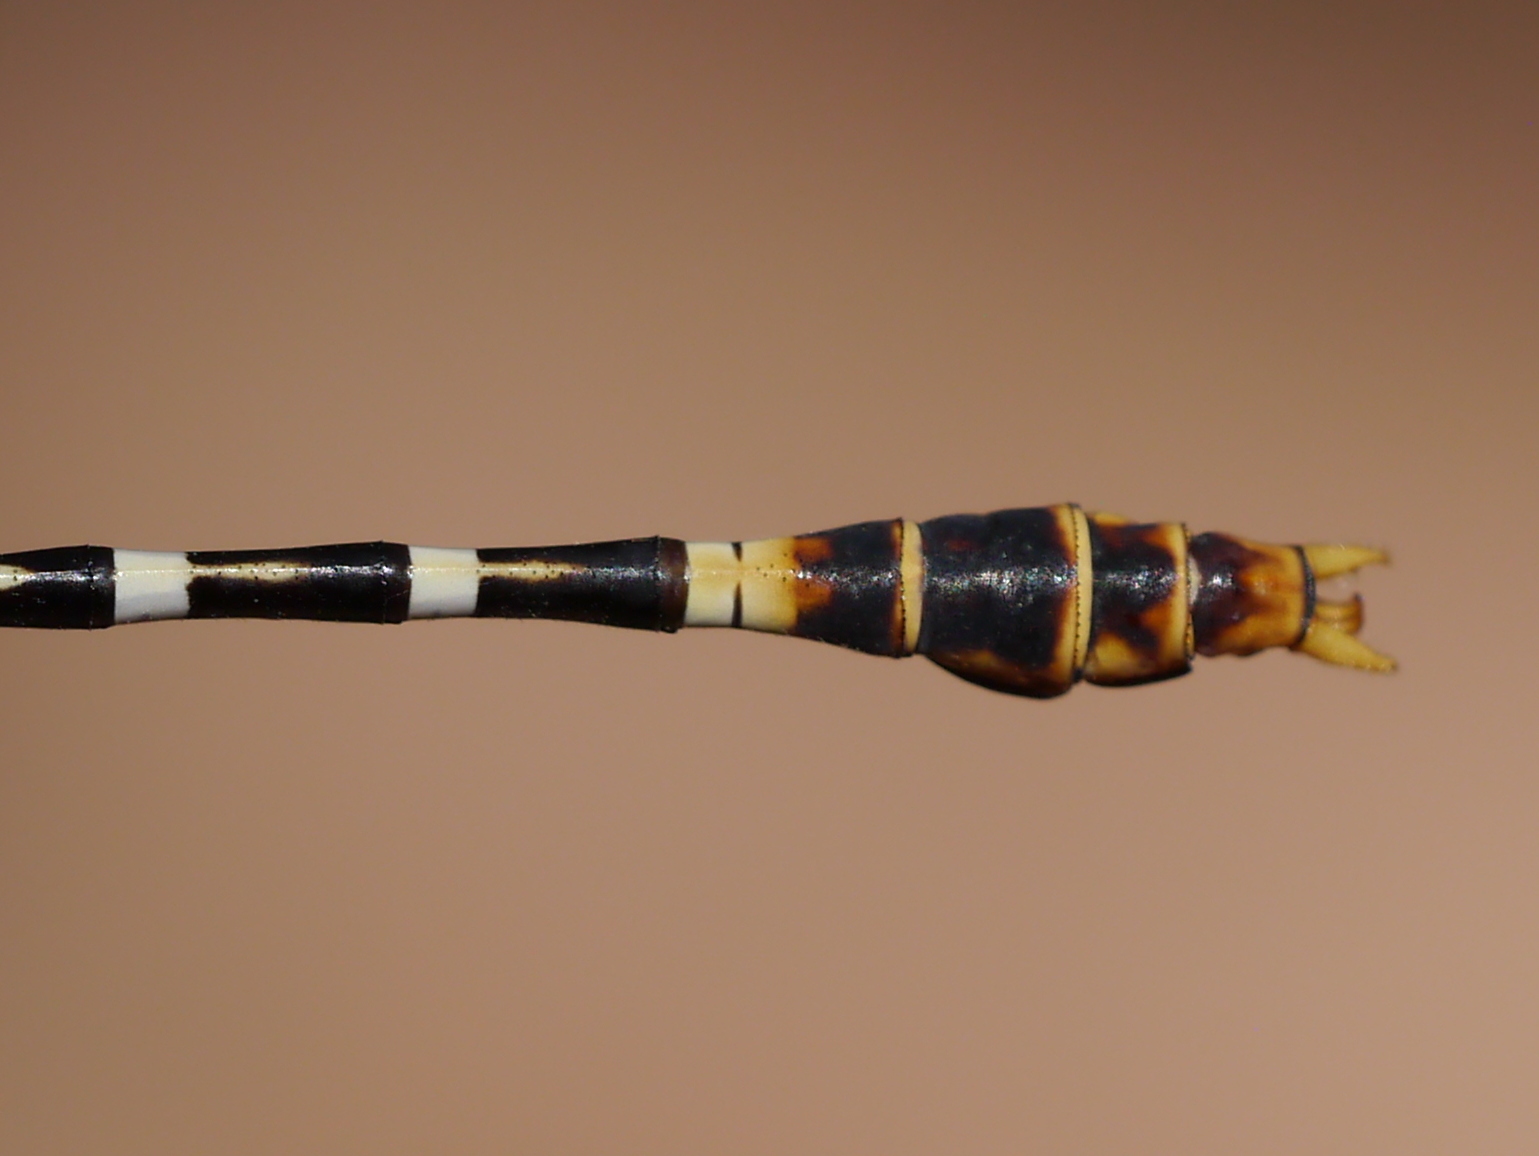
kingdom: Animalia
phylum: Arthropoda
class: Insecta
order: Odonata
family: Gomphidae
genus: Erpetogomphus
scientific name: Erpetogomphus compositus
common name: White-belted ringtail
